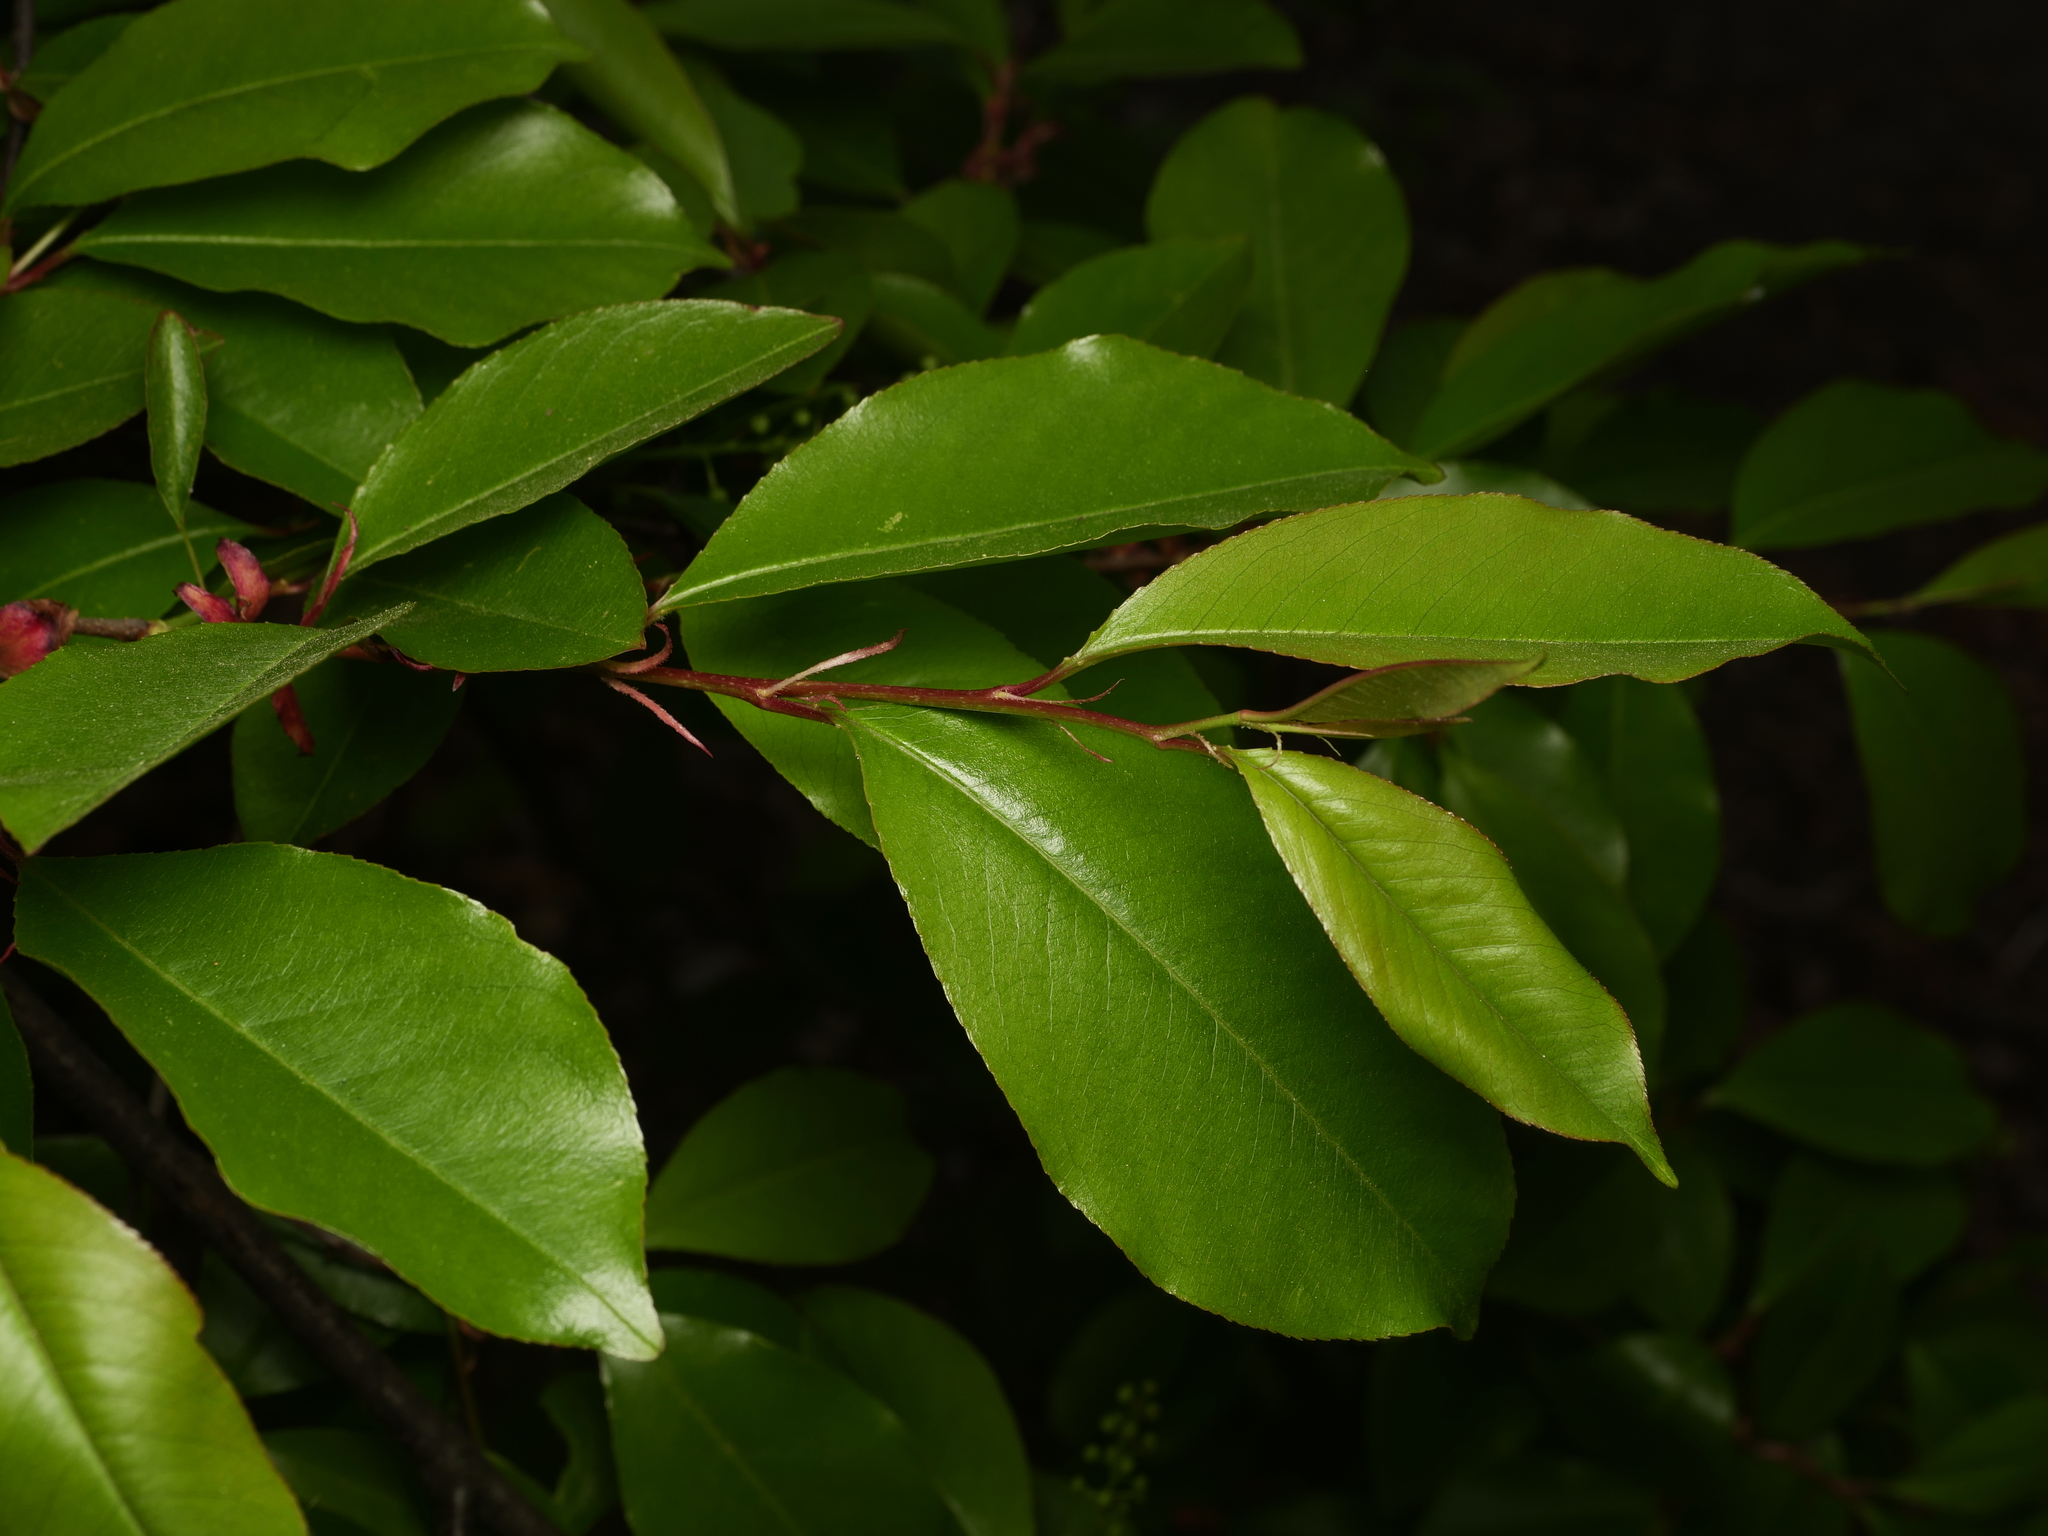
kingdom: Plantae
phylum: Tracheophyta
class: Magnoliopsida
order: Rosales
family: Rosaceae
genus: Prunus
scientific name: Prunus serotina
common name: Black cherry
